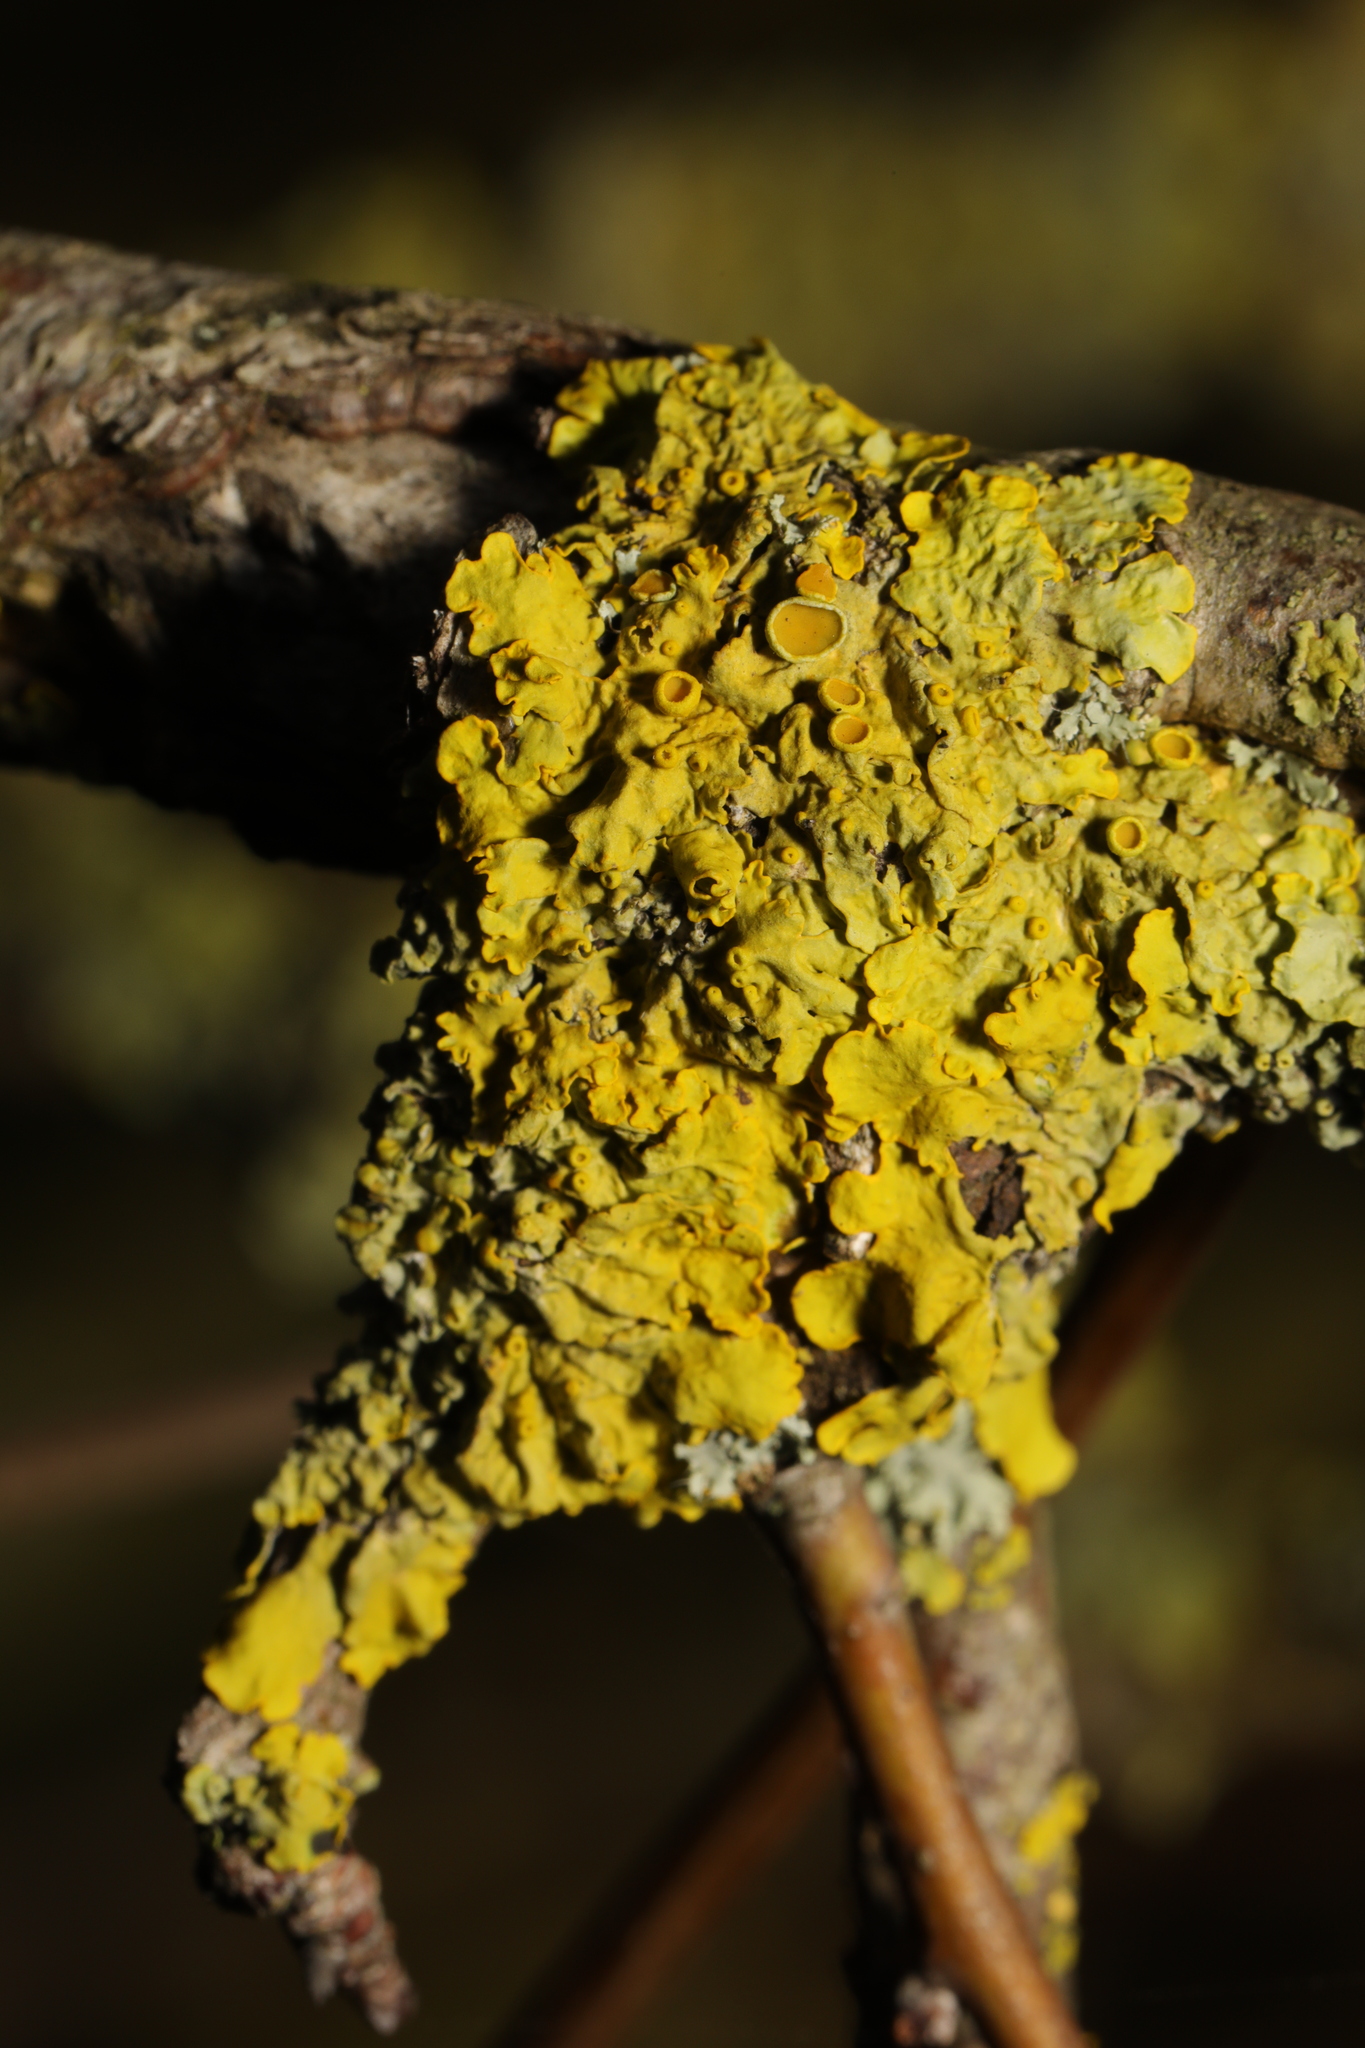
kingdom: Fungi
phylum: Ascomycota
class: Lecanoromycetes
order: Teloschistales
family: Teloschistaceae
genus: Xanthoria
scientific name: Xanthoria parietina
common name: Common orange lichen
